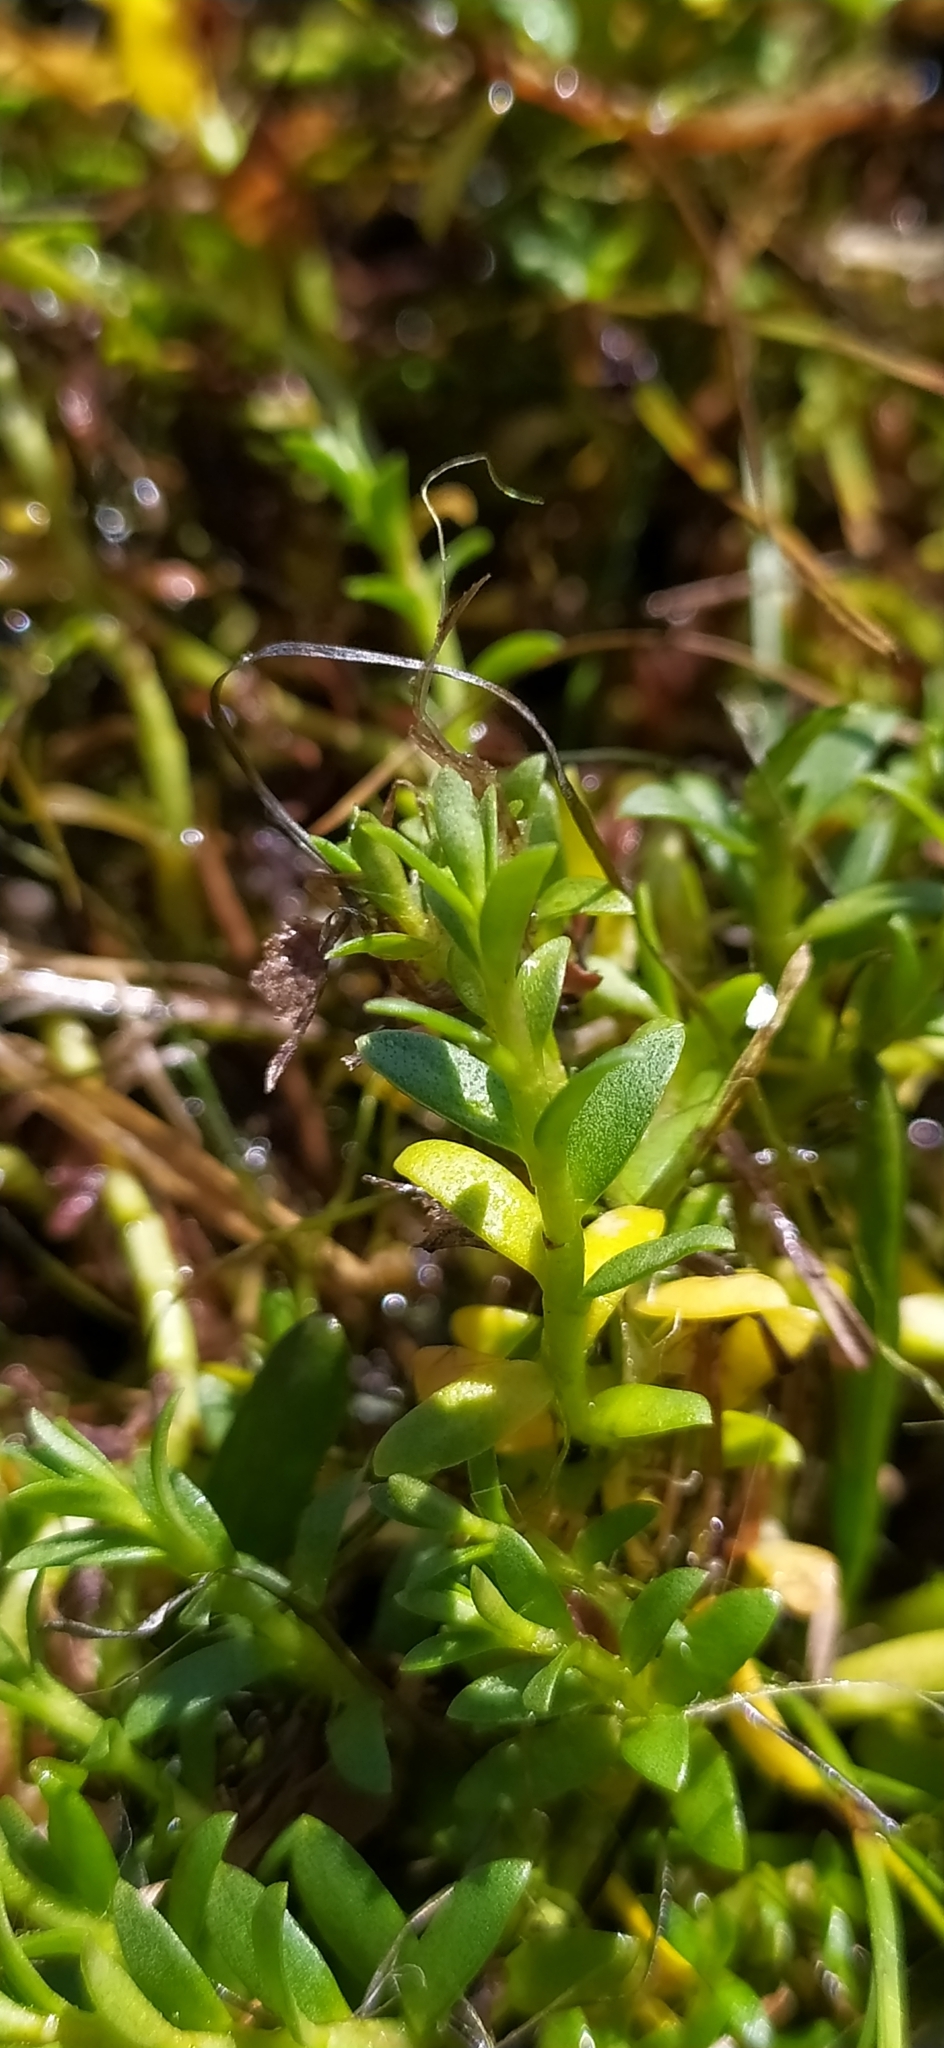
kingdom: Plantae
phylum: Tracheophyta
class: Magnoliopsida
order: Ericales
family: Primulaceae
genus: Lysimachia
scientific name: Lysimachia maritima
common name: Sea milkwort
